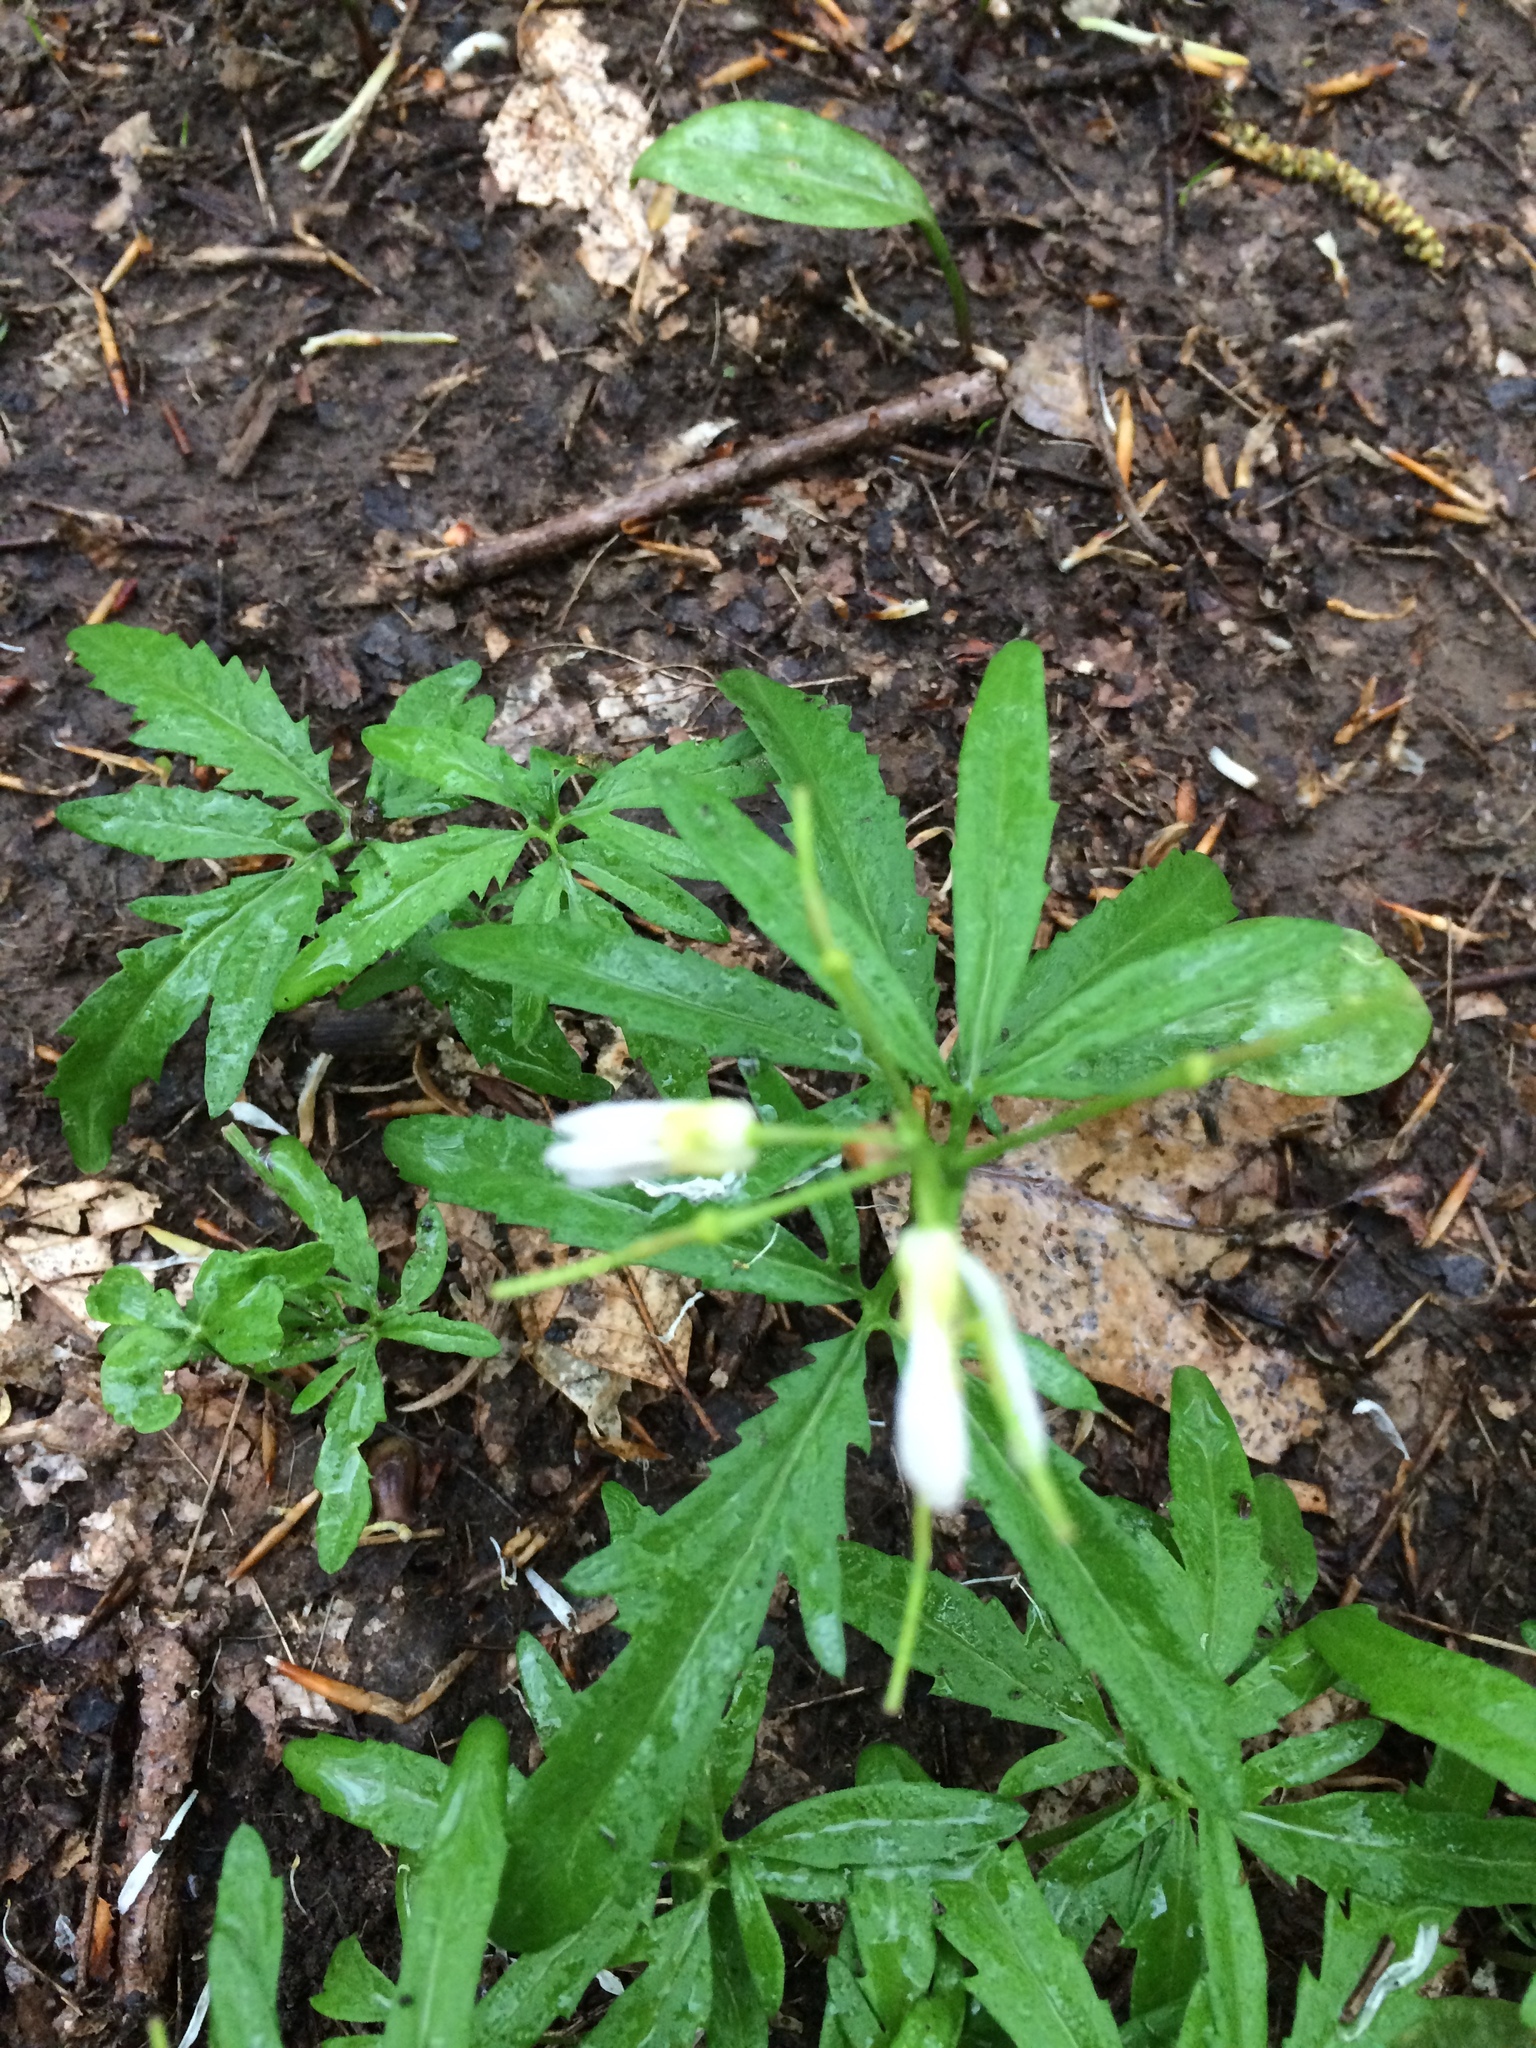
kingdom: Plantae
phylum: Tracheophyta
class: Magnoliopsida
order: Brassicales
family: Brassicaceae
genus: Cardamine
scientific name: Cardamine concatenata
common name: Cut-leaf toothcup
